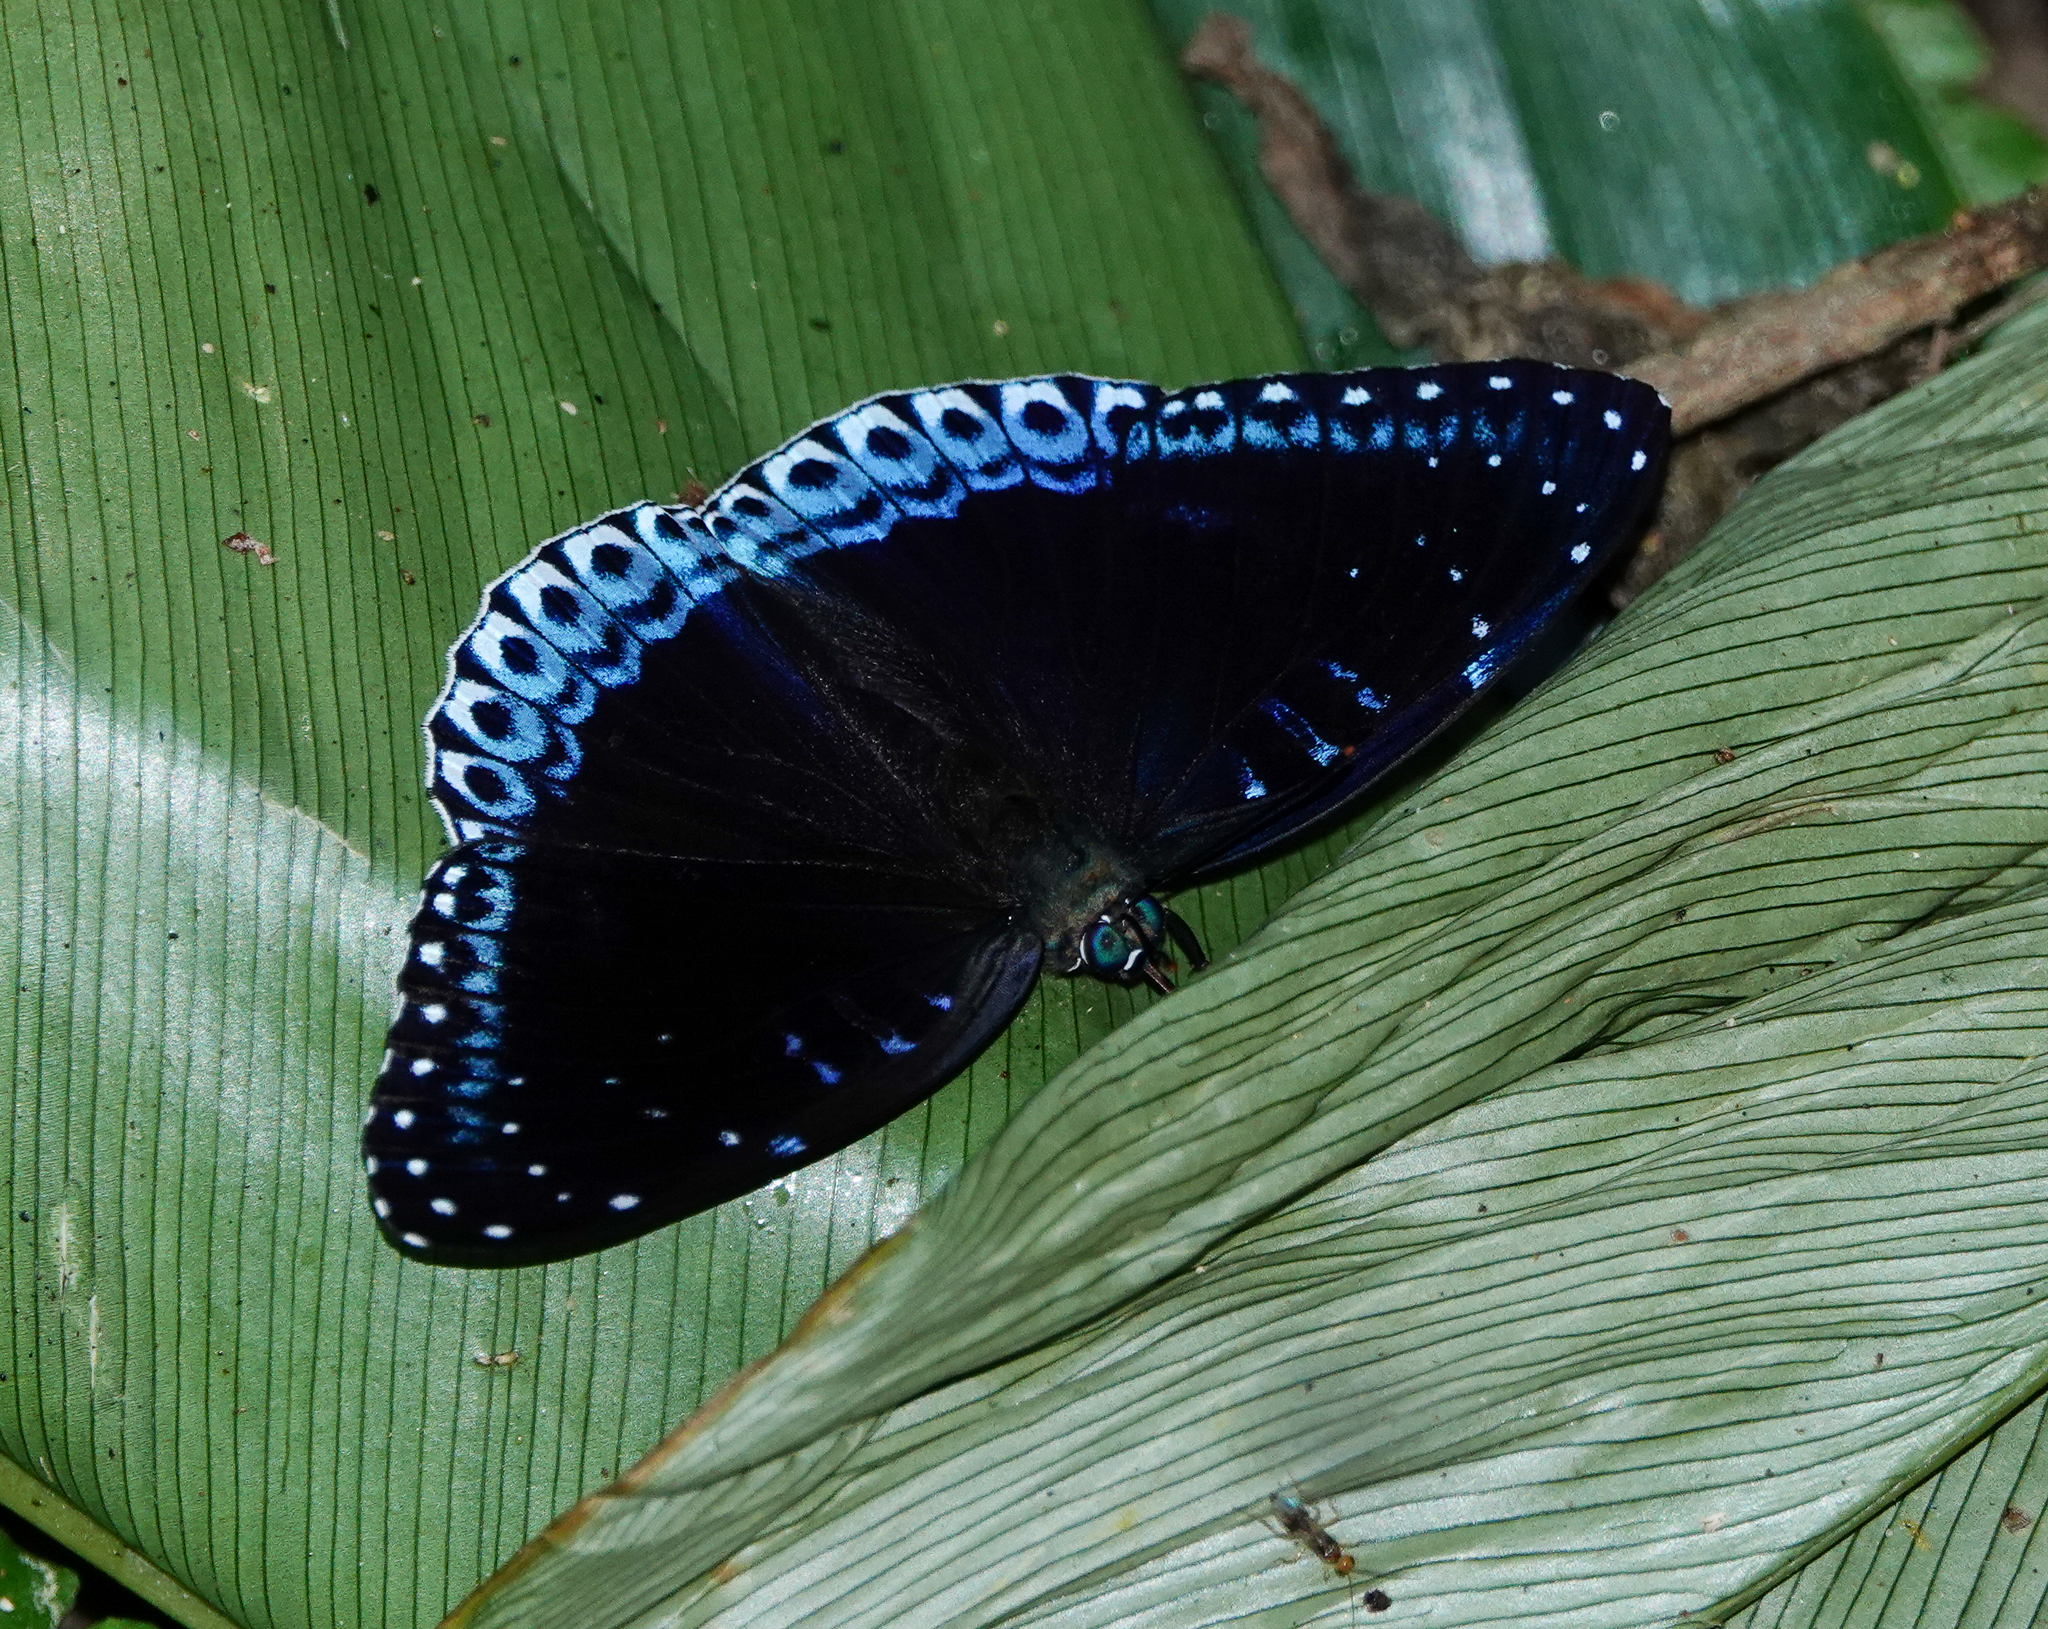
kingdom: Animalia
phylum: Arthropoda
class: Insecta
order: Lepidoptera
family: Nymphalidae
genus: Stibochiona
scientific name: Stibochiona nicea
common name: Popinjay
